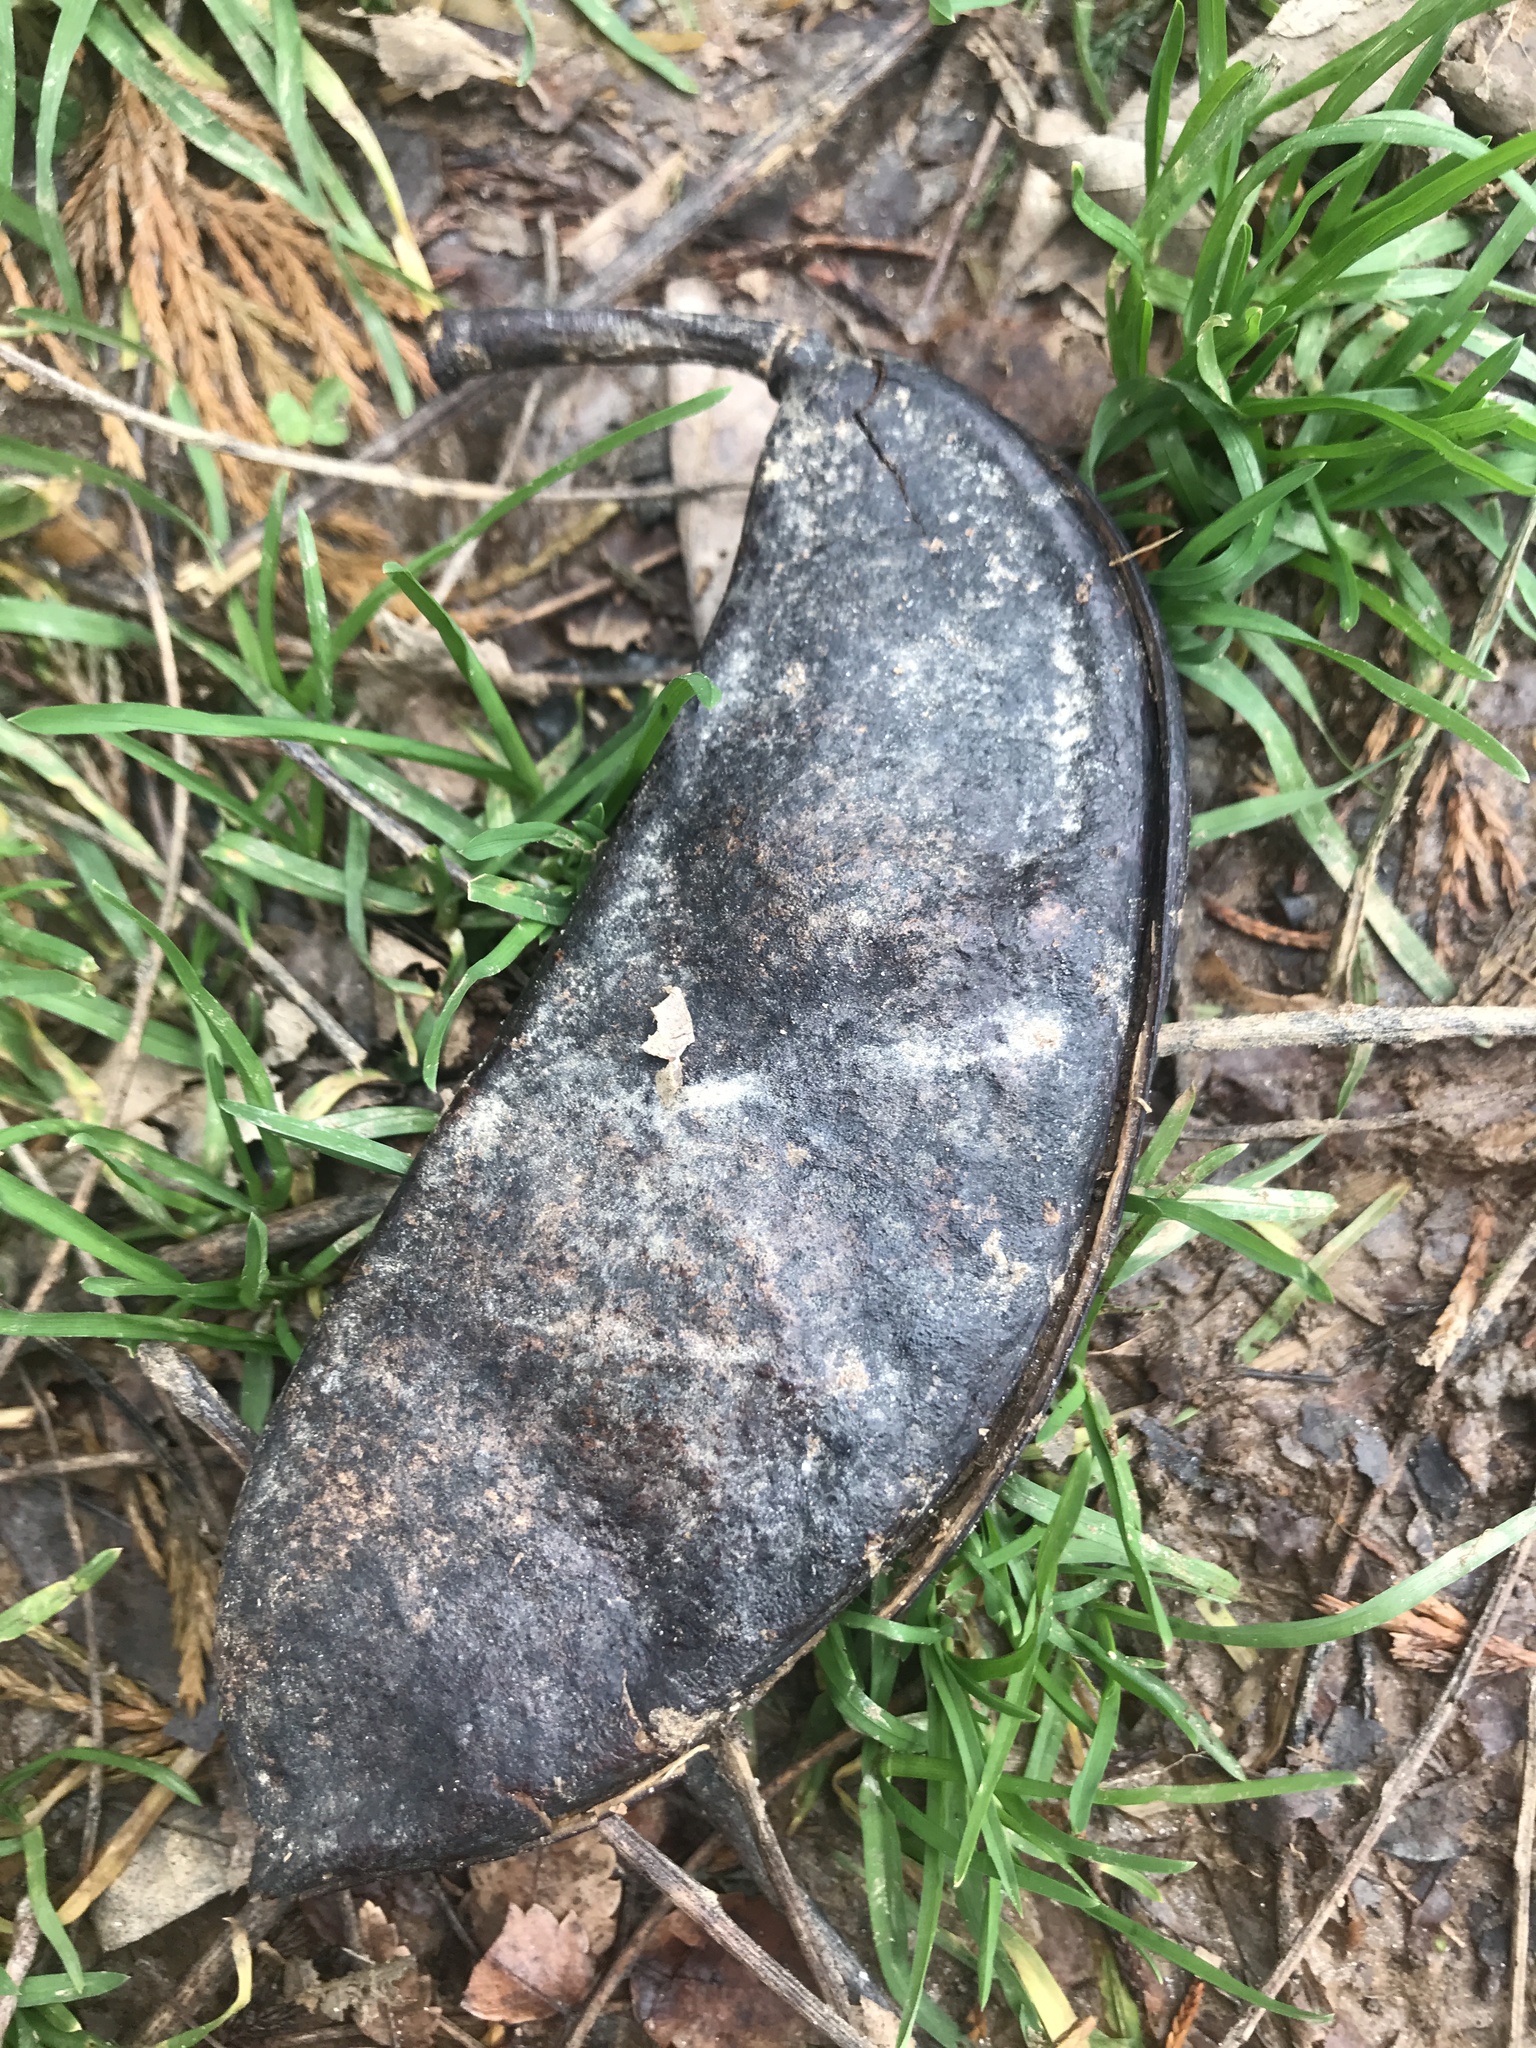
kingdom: Plantae
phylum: Tracheophyta
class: Magnoliopsida
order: Fabales
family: Fabaceae
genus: Gymnocladus
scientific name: Gymnocladus dioicus
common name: Kentucky coffee-tree
